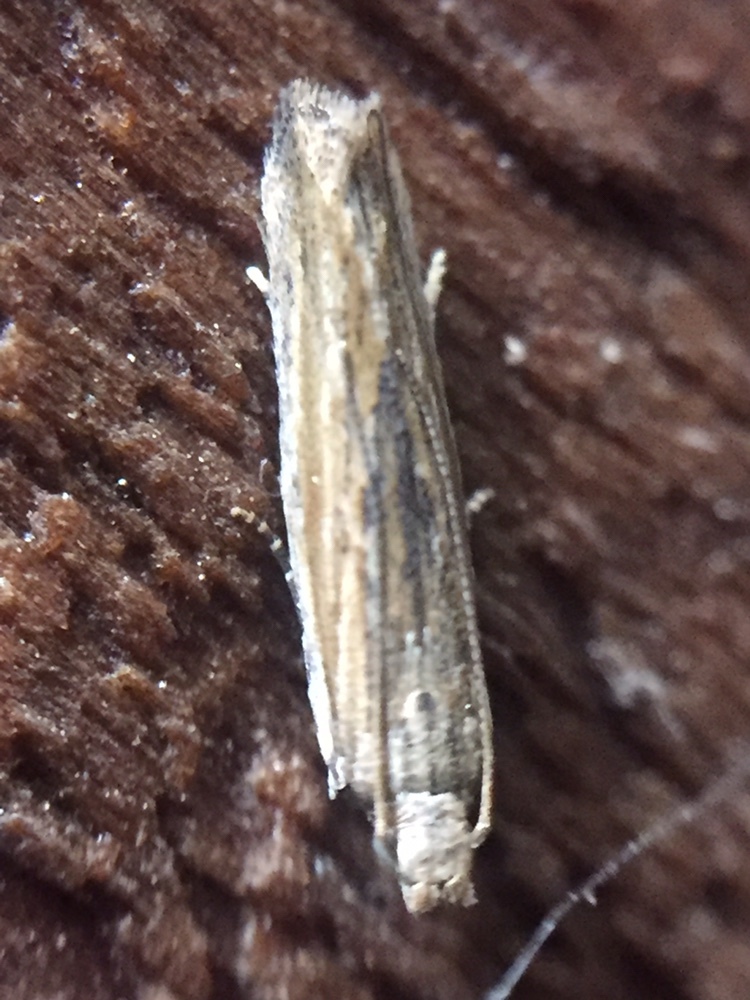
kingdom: Animalia
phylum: Arthropoda
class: Insecta
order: Lepidoptera
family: Gelechiidae
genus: Symmetrischema
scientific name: Symmetrischema striatella
